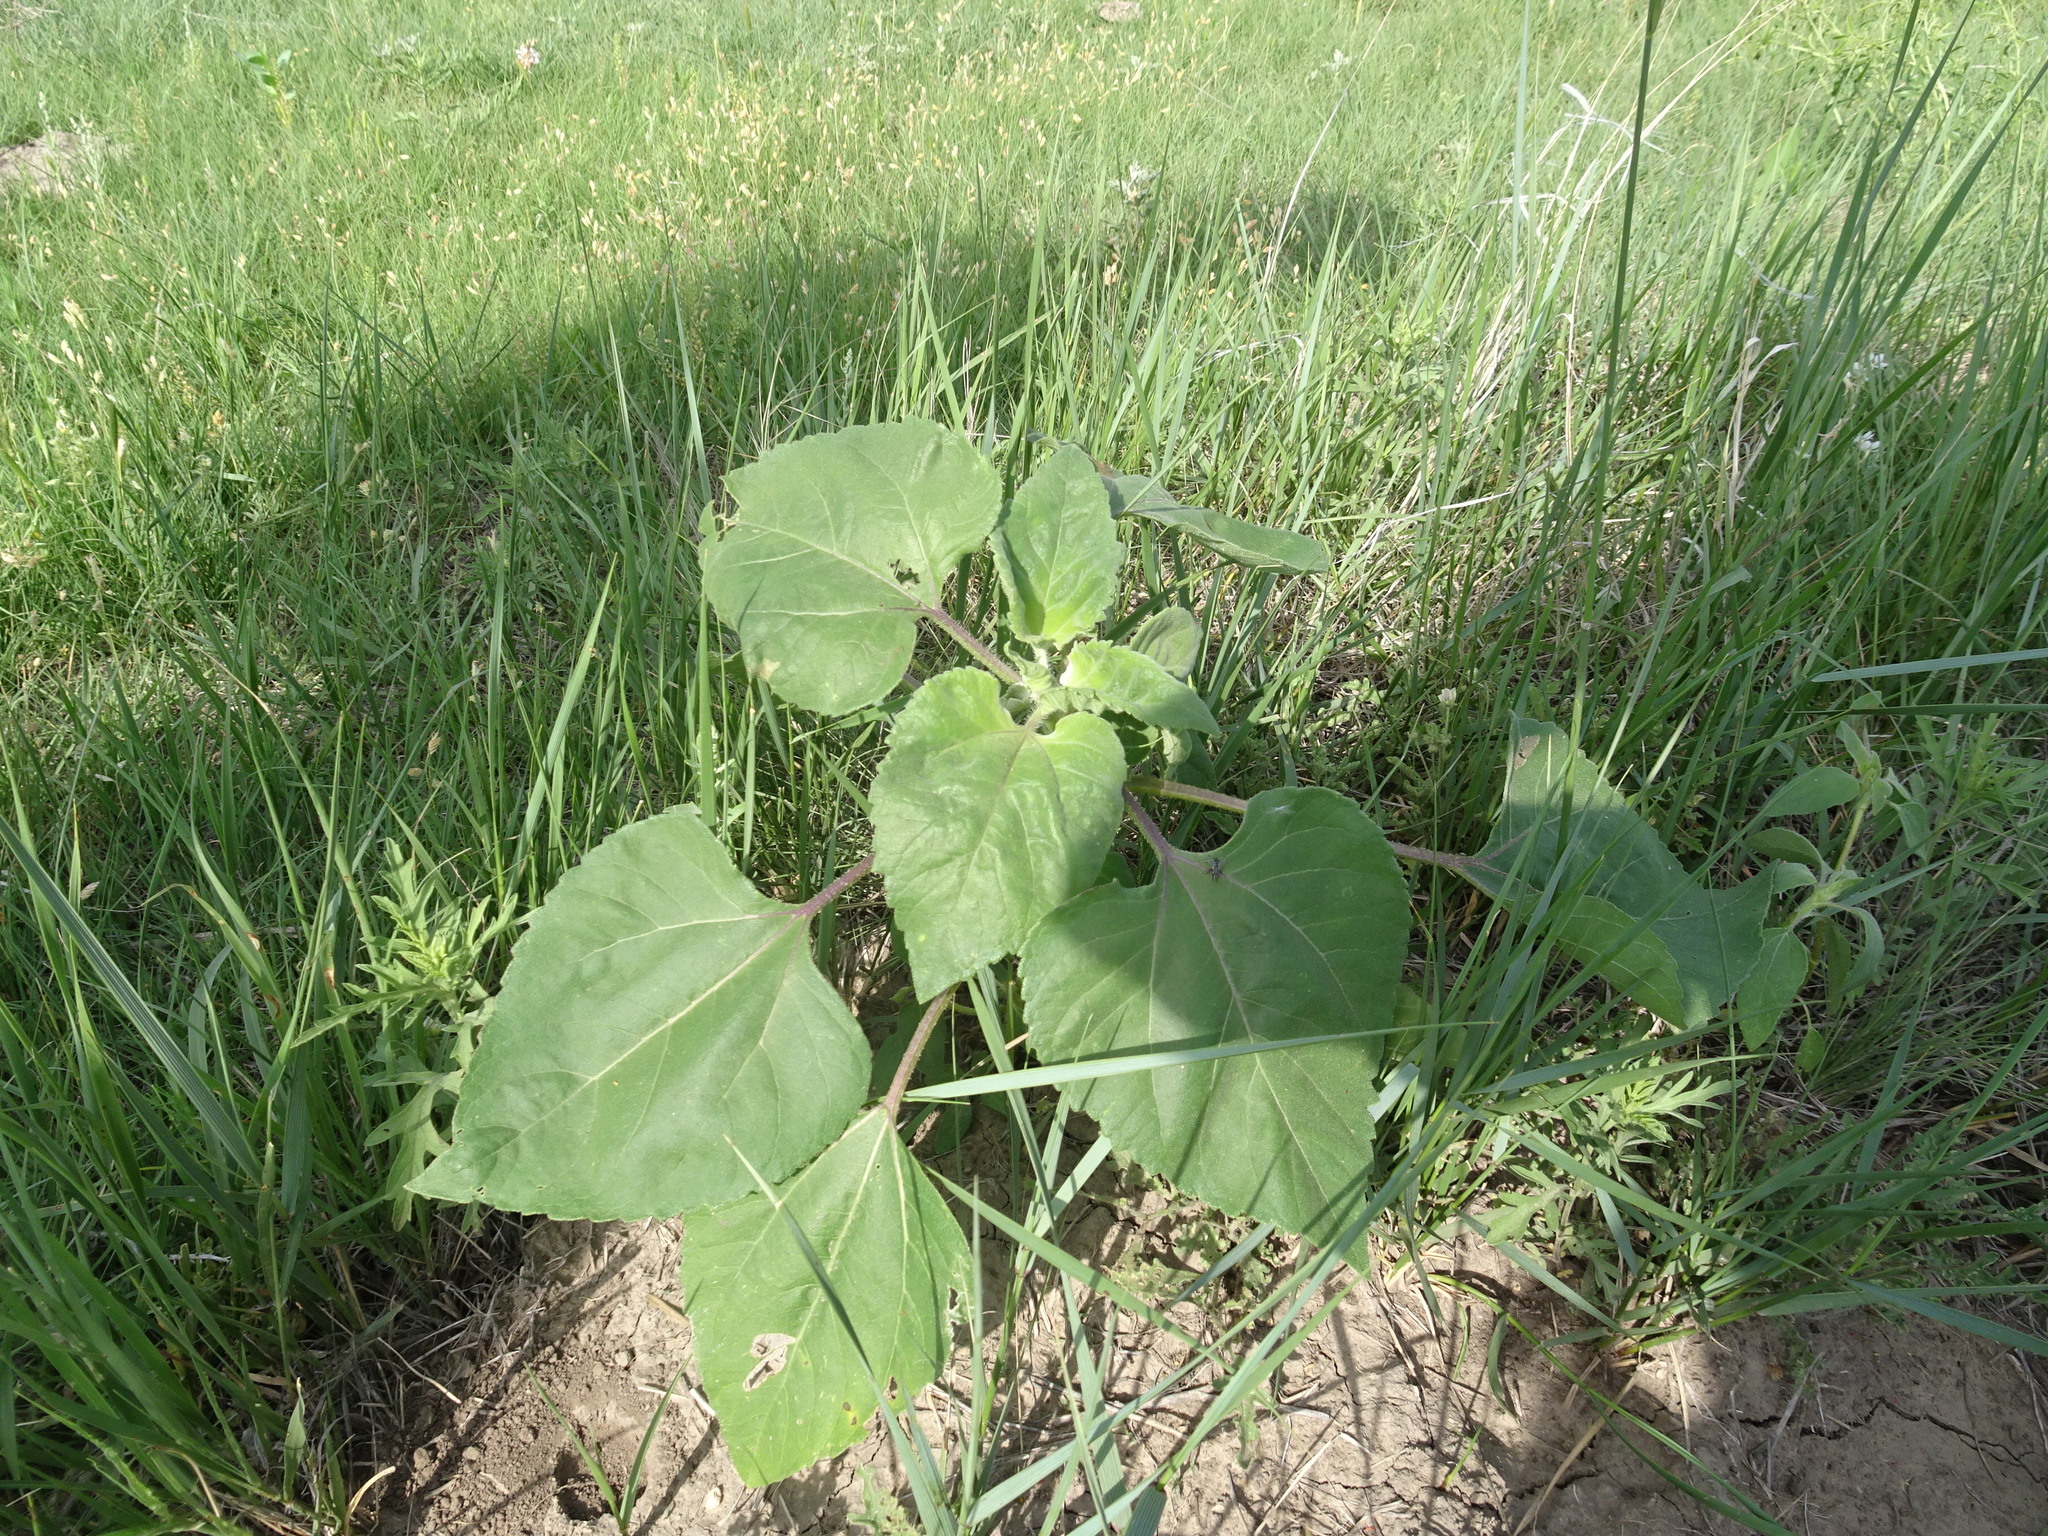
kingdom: Plantae
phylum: Tracheophyta
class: Magnoliopsida
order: Asterales
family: Asteraceae
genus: Helianthus
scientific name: Helianthus annuus
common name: Sunflower
